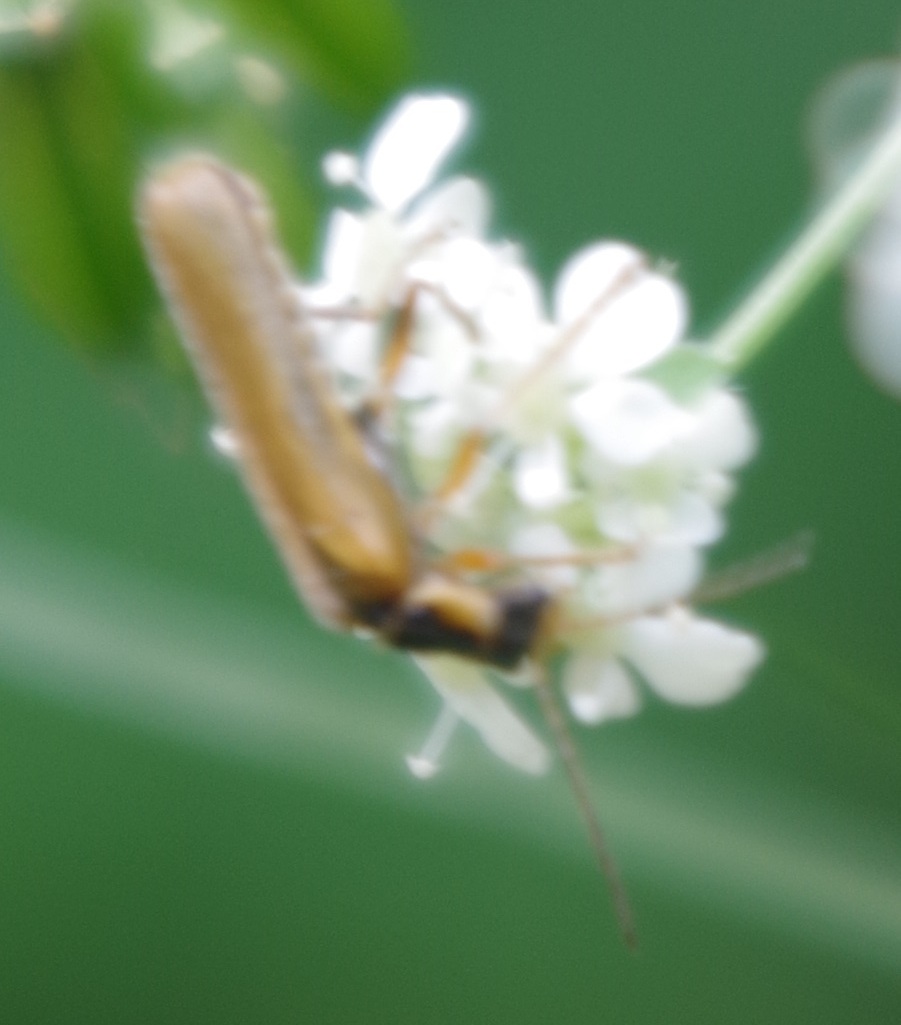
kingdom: Animalia
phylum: Arthropoda
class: Insecta
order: Coleoptera
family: Cantharidae
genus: Cantharis
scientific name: Cantharis decipiens
